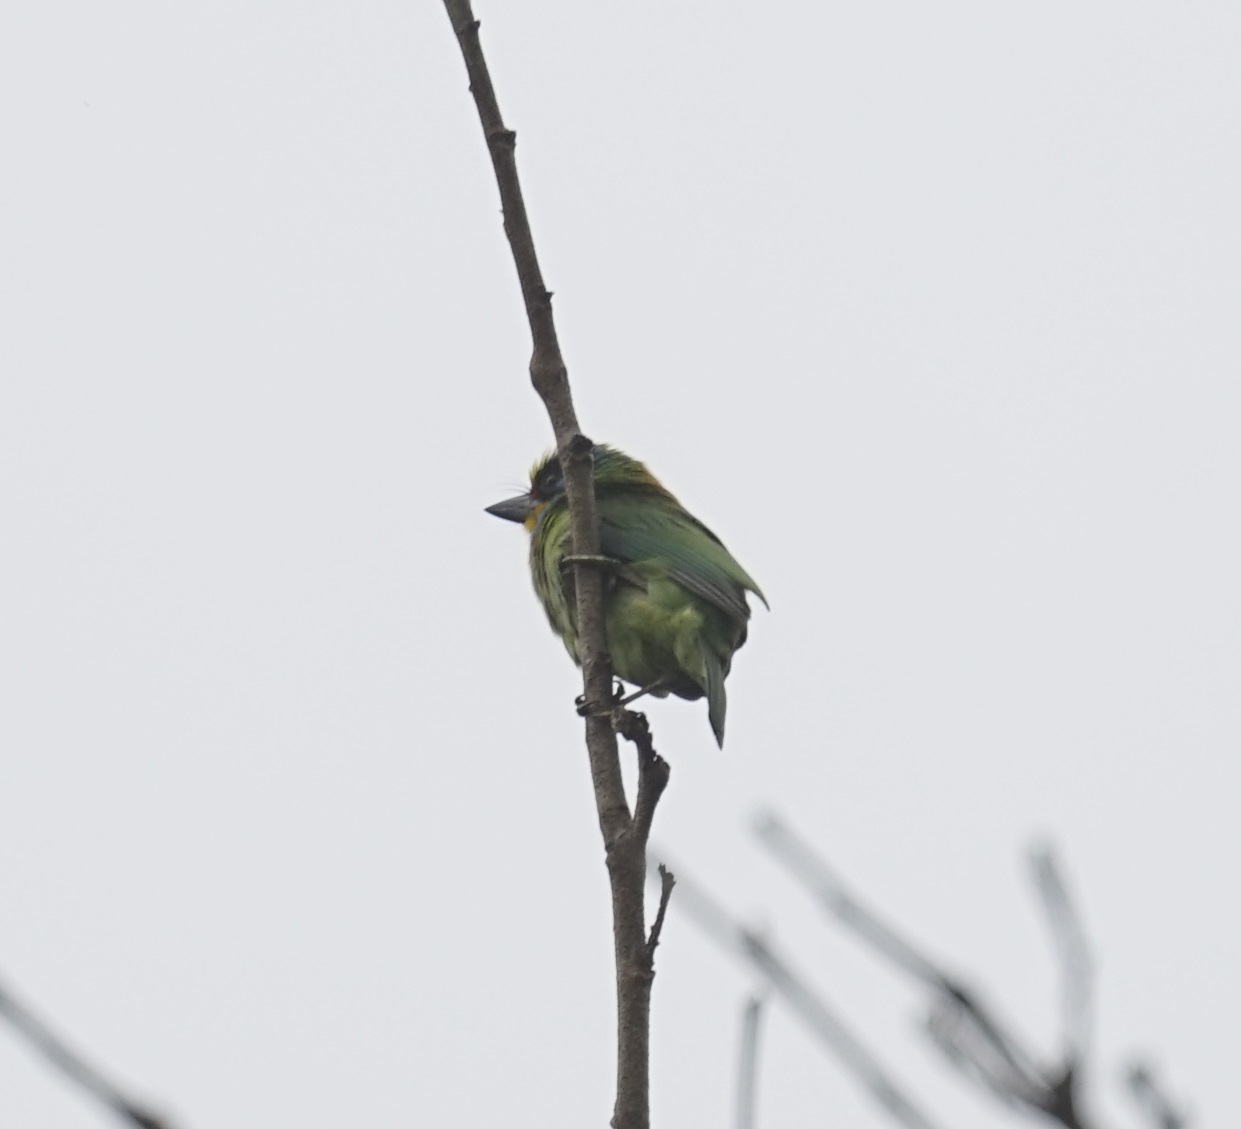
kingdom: Animalia
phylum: Chordata
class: Aves
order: Piciformes
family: Megalaimidae
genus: Psilopogon
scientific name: Psilopogon nuchalis
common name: Taiwan barbet
